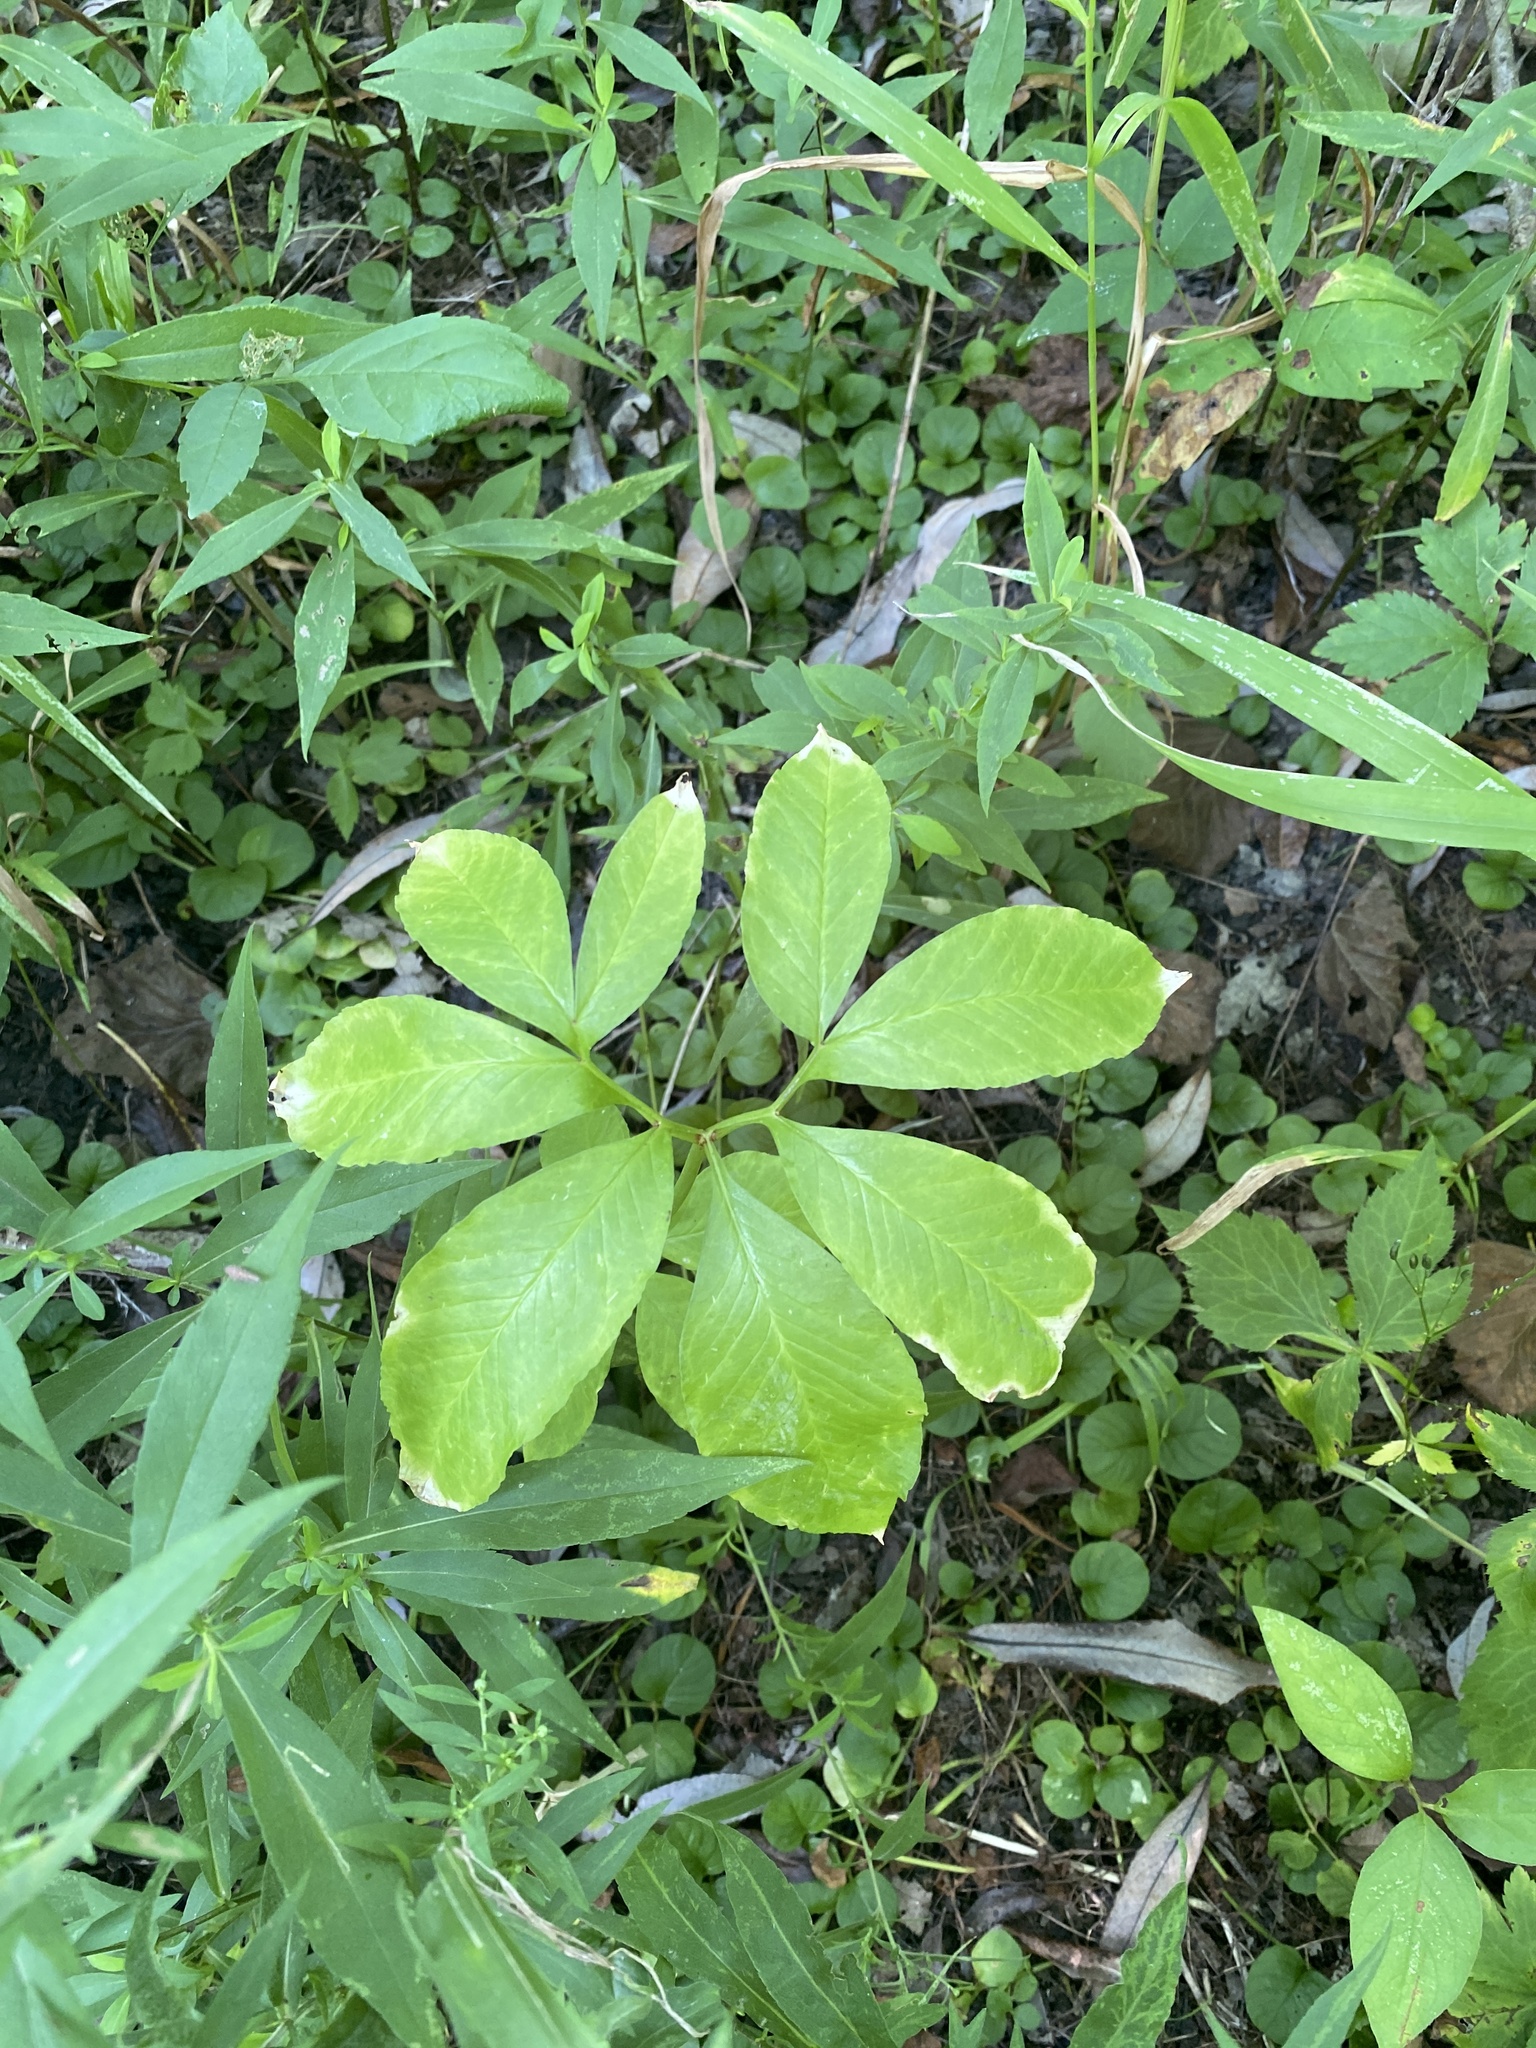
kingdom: Plantae
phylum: Tracheophyta
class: Liliopsida
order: Alismatales
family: Araceae
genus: Arisaema
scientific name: Arisaema dracontium
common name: Dragon-arum
